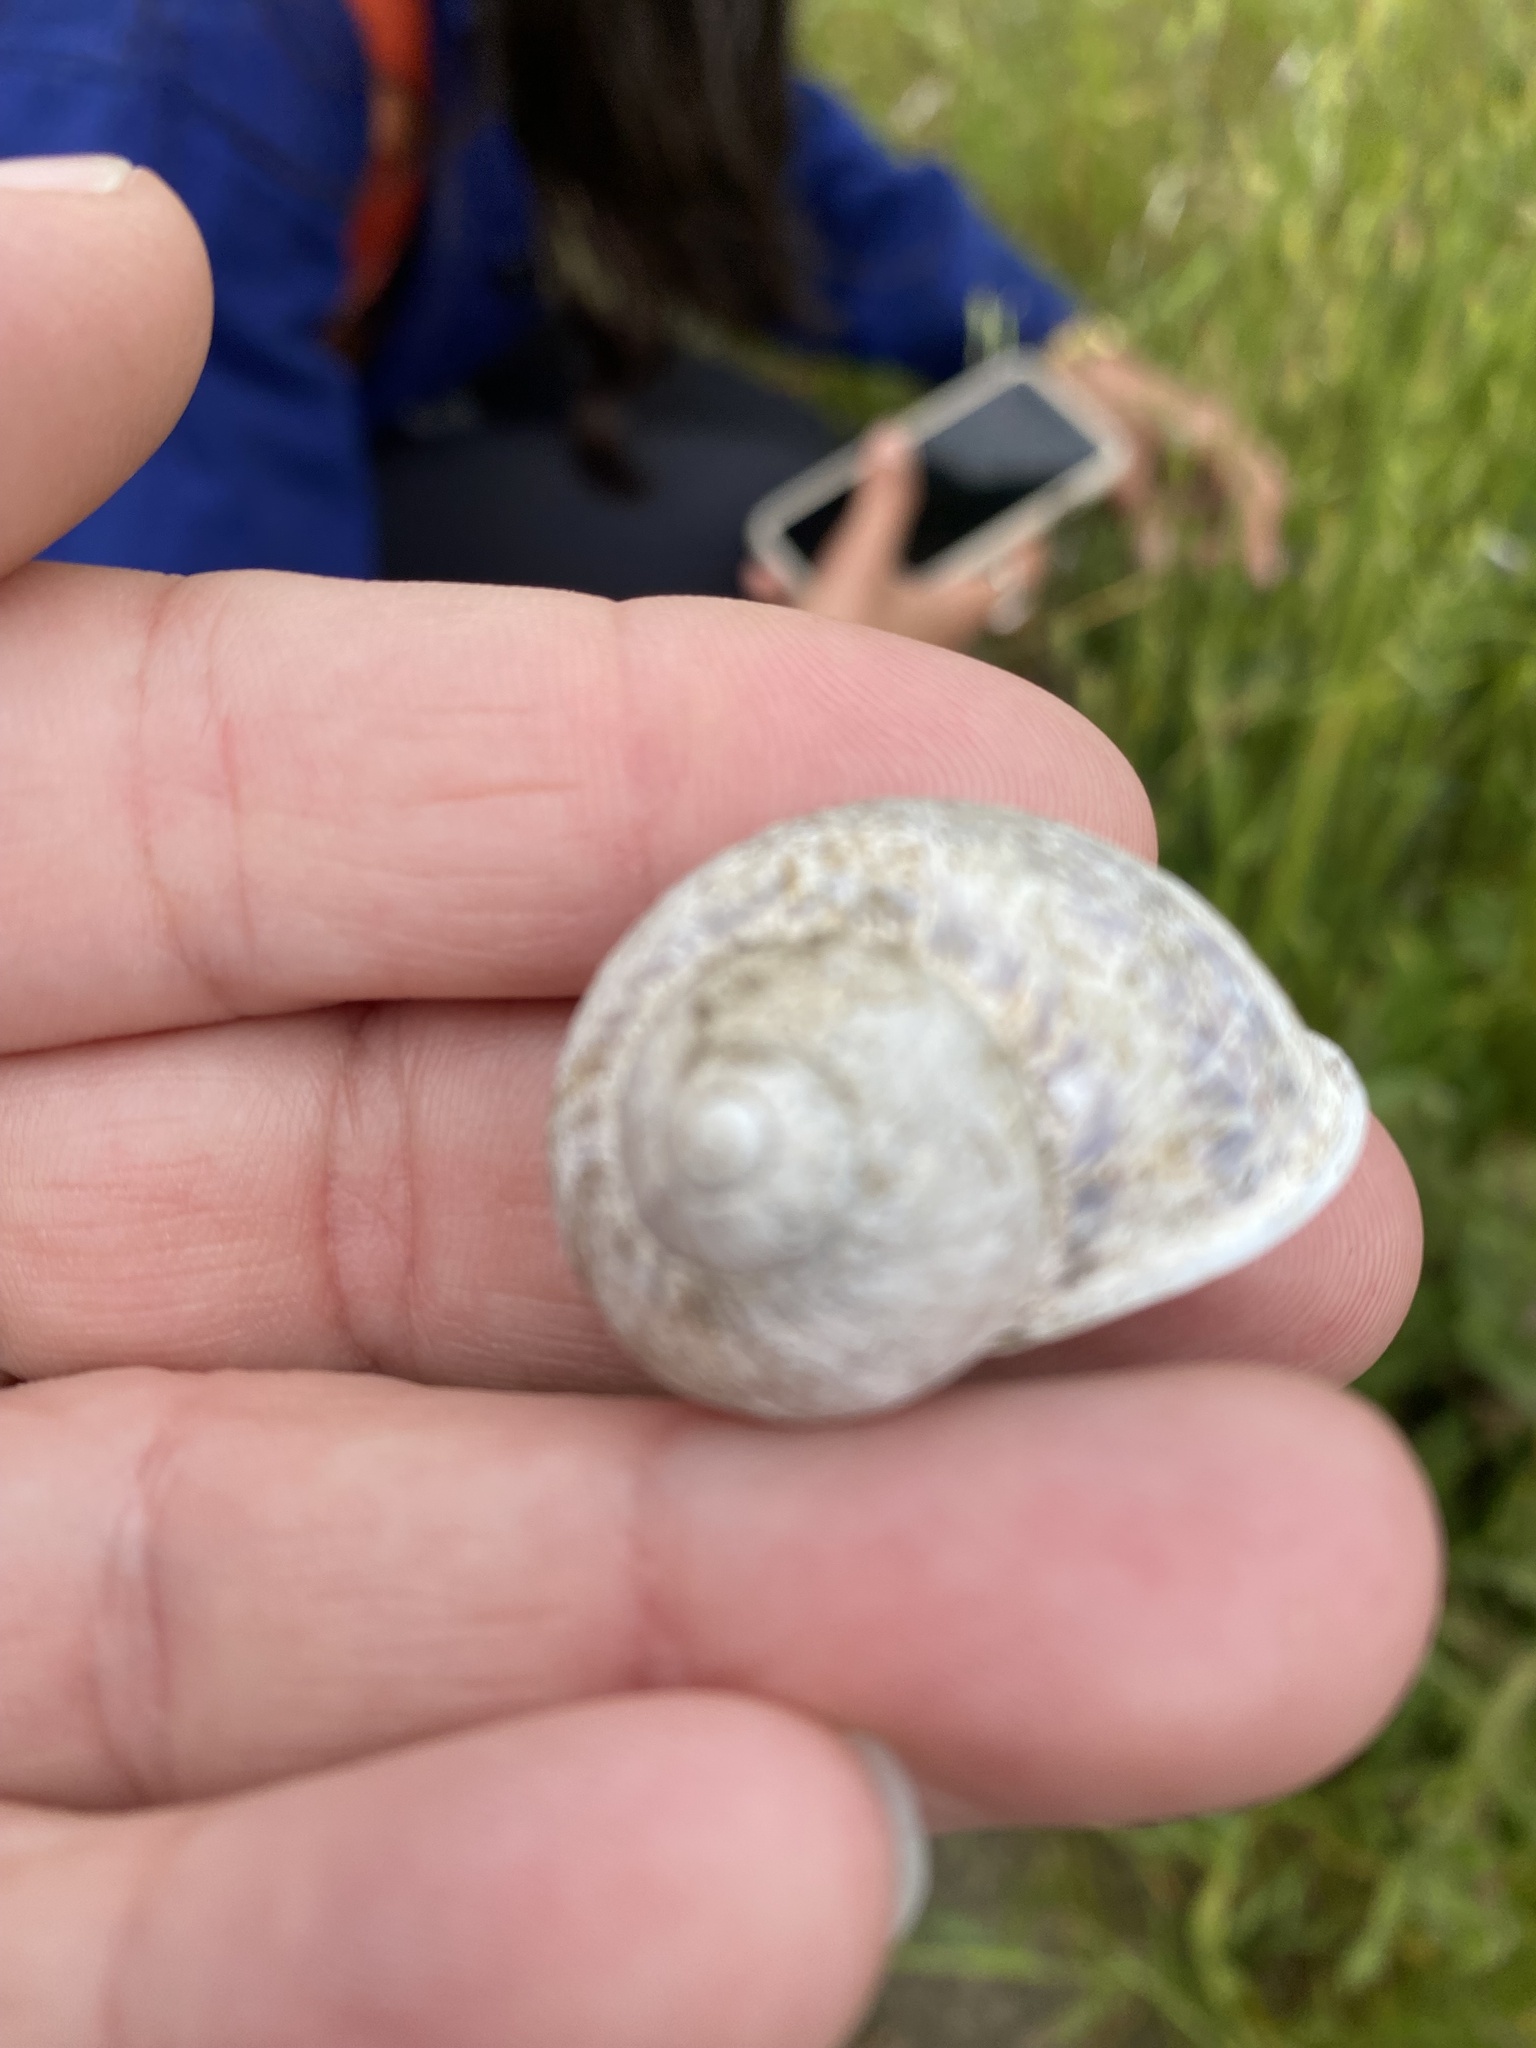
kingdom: Animalia
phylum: Mollusca
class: Gastropoda
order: Stylommatophora
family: Helicidae
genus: Cornu
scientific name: Cornu aspersum
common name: Brown garden snail
